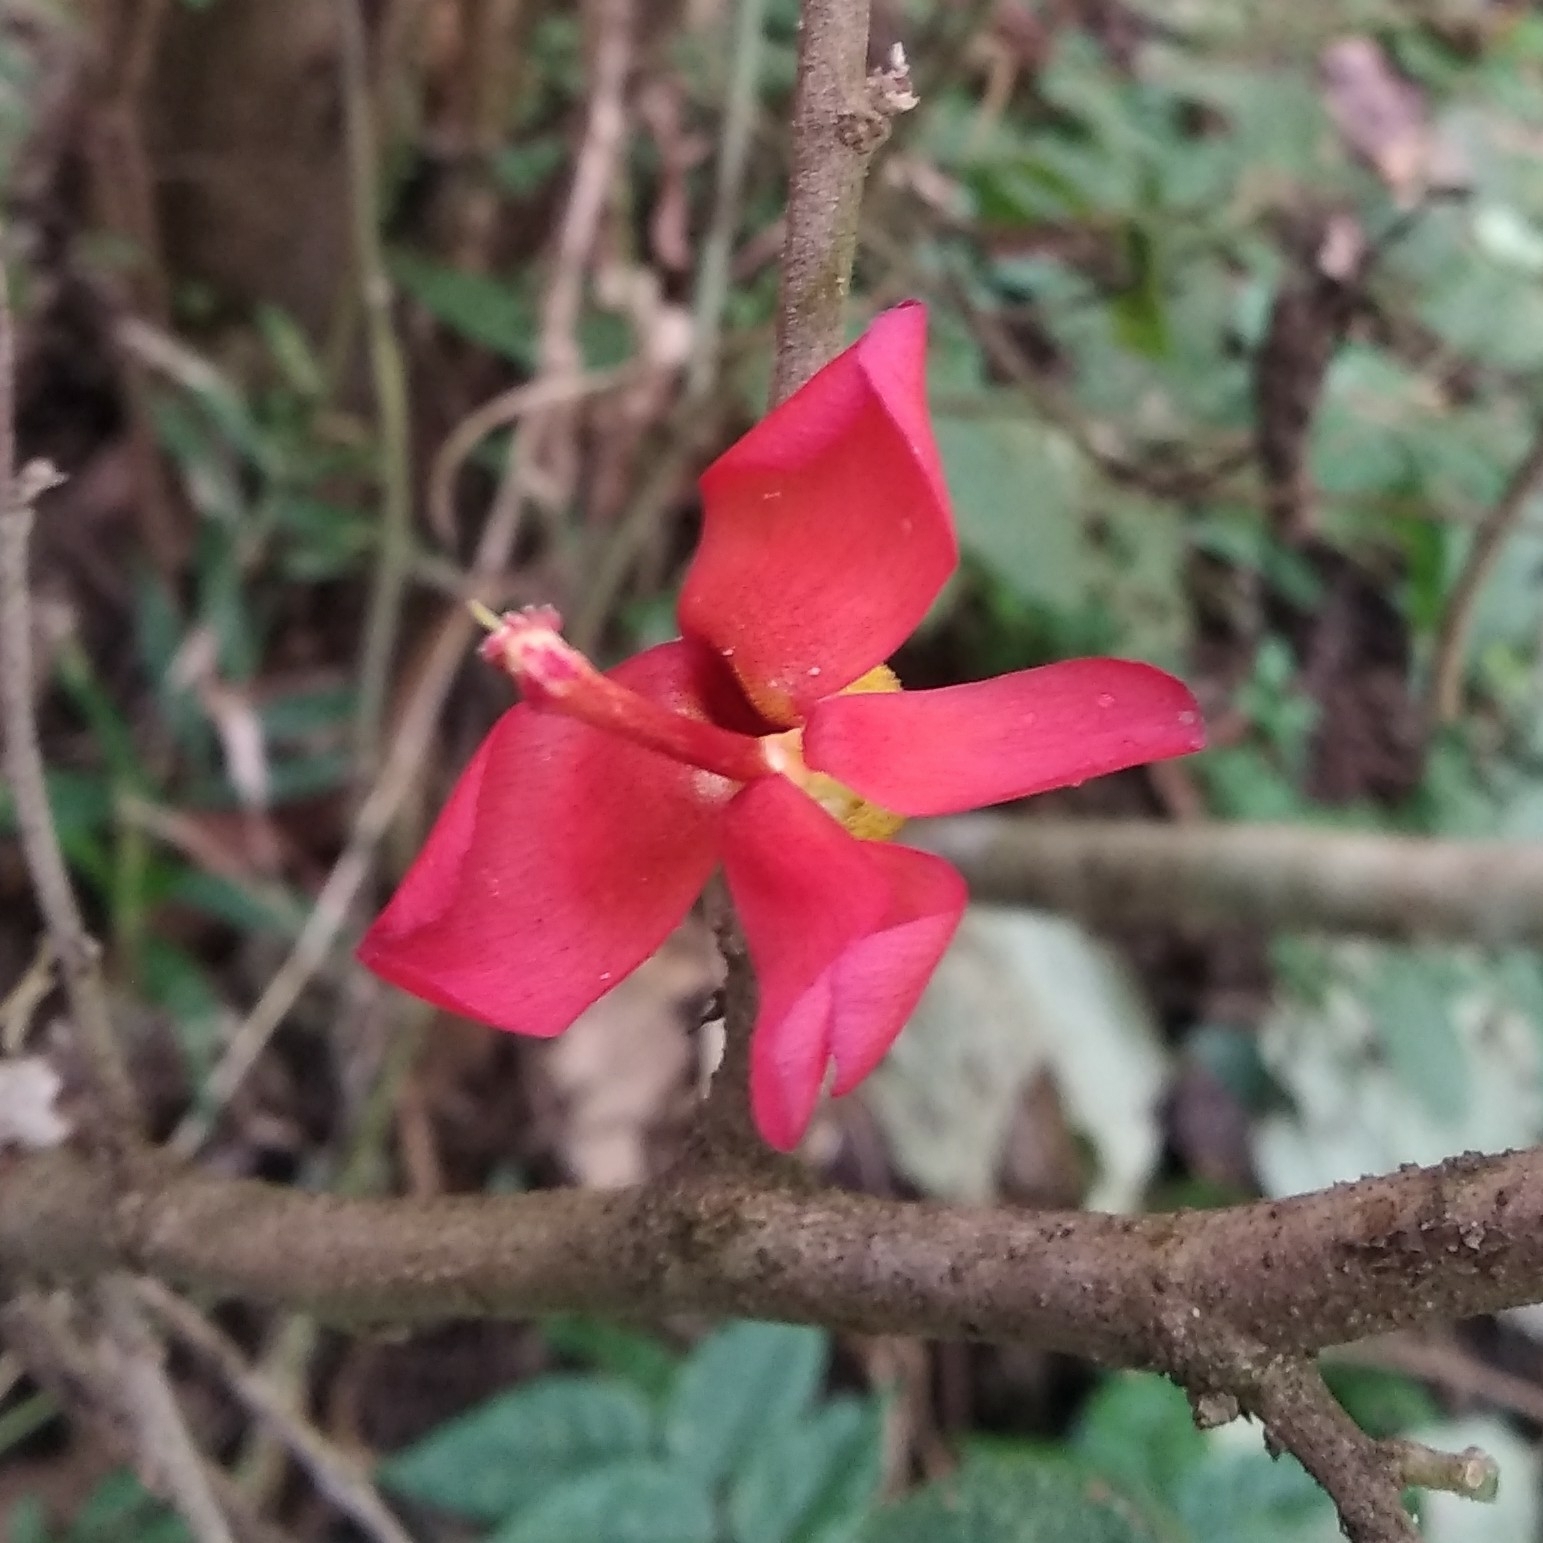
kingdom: Plantae
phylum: Tracheophyta
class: Magnoliopsida
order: Malvales
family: Malvaceae
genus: Helicteres
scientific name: Helicteres isora
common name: East indian screwtree
